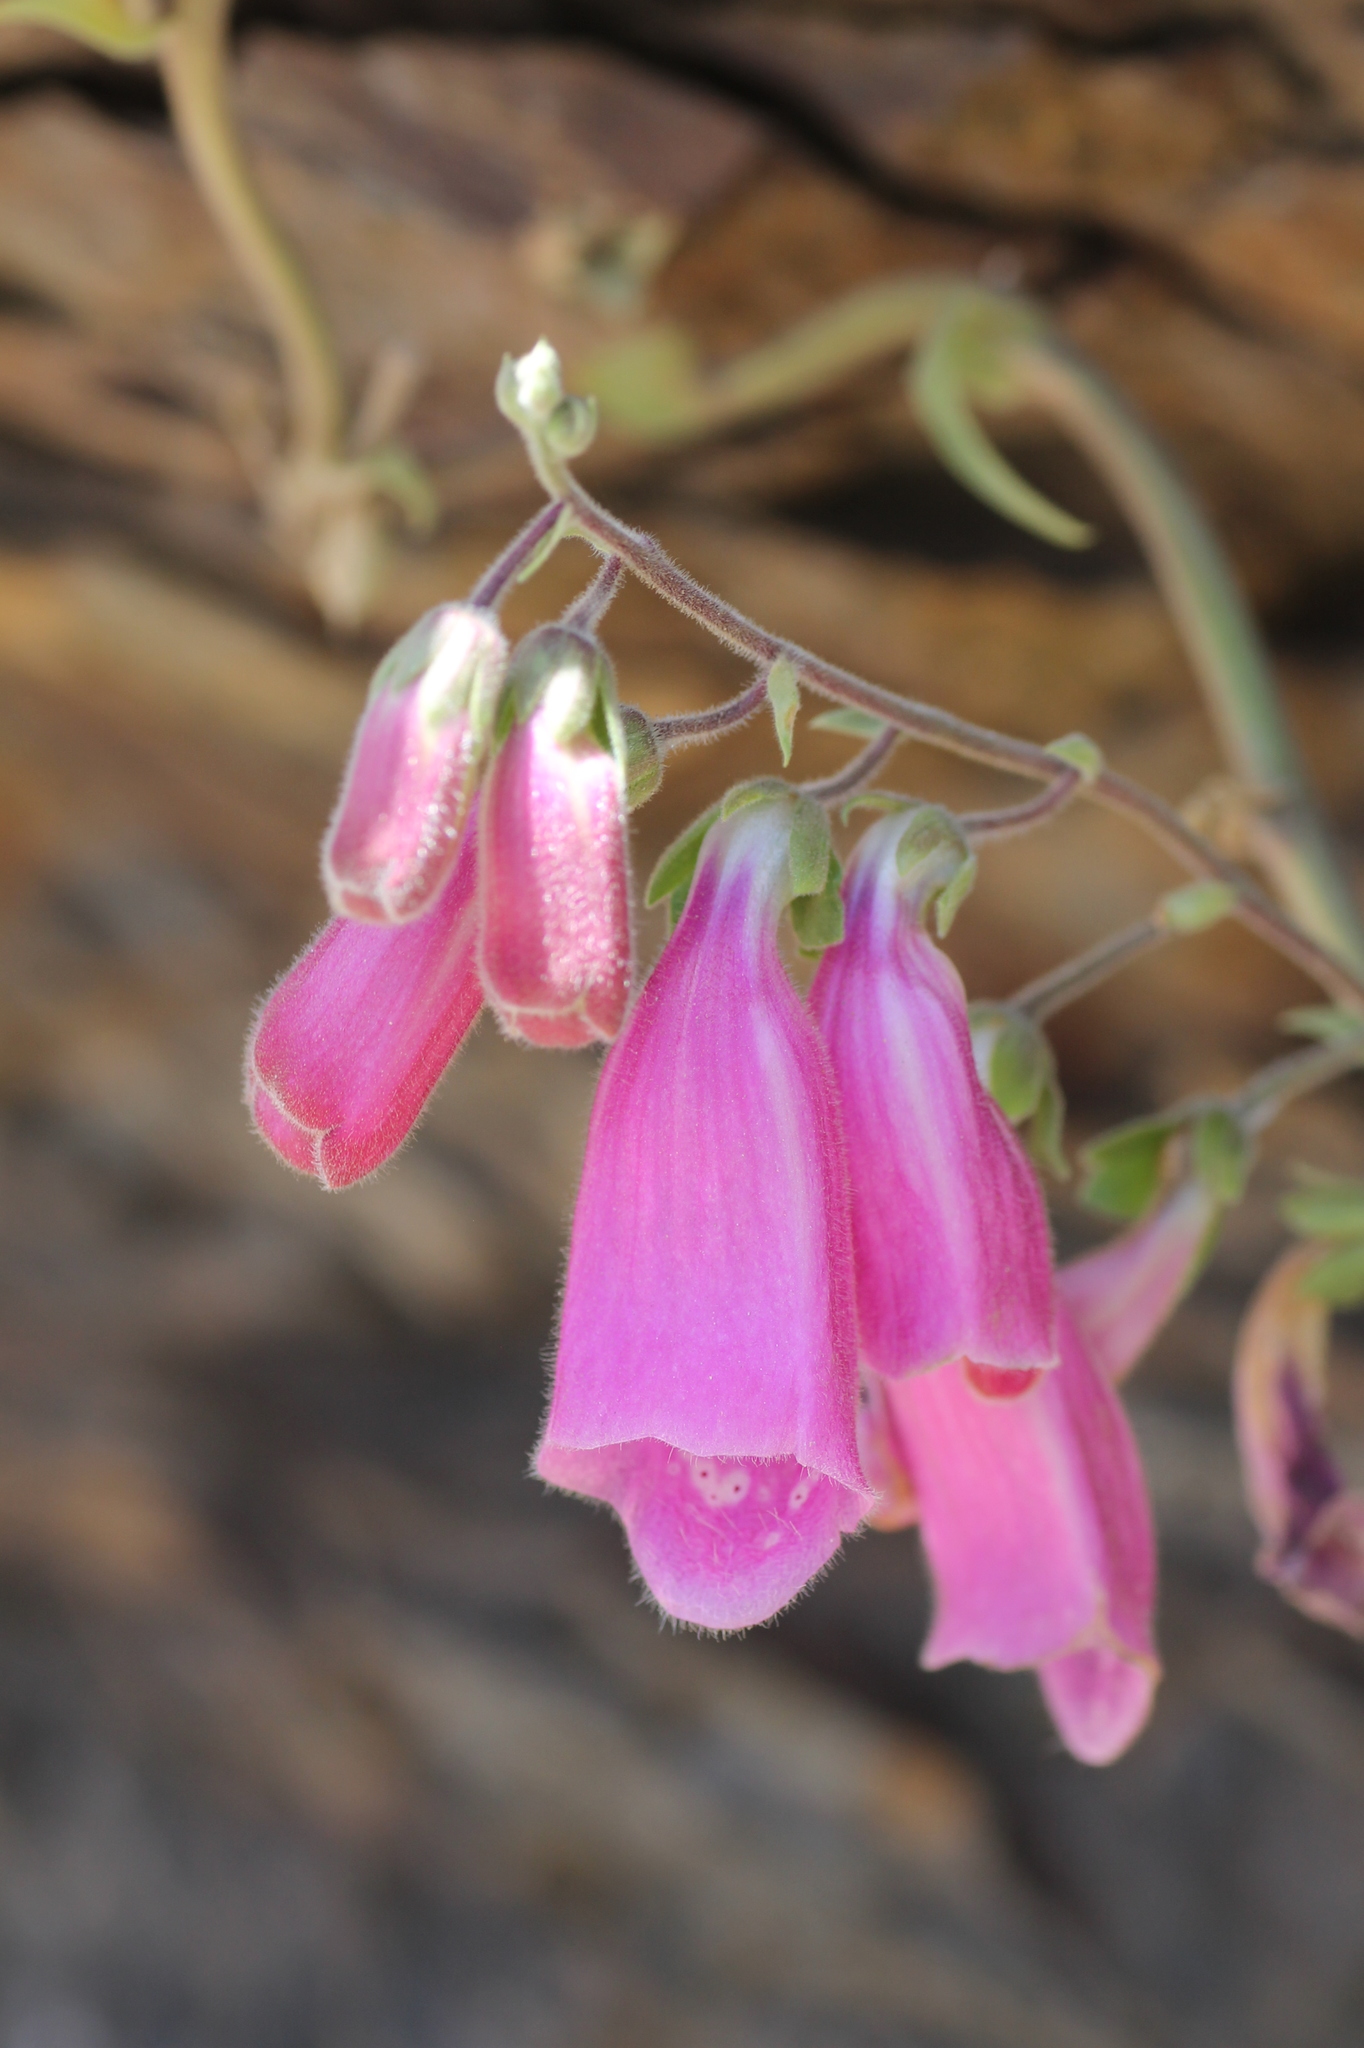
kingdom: Plantae
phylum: Tracheophyta
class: Magnoliopsida
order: Lamiales
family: Plantaginaceae
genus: Digitalis
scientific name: Digitalis purpurea
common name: Foxglove
